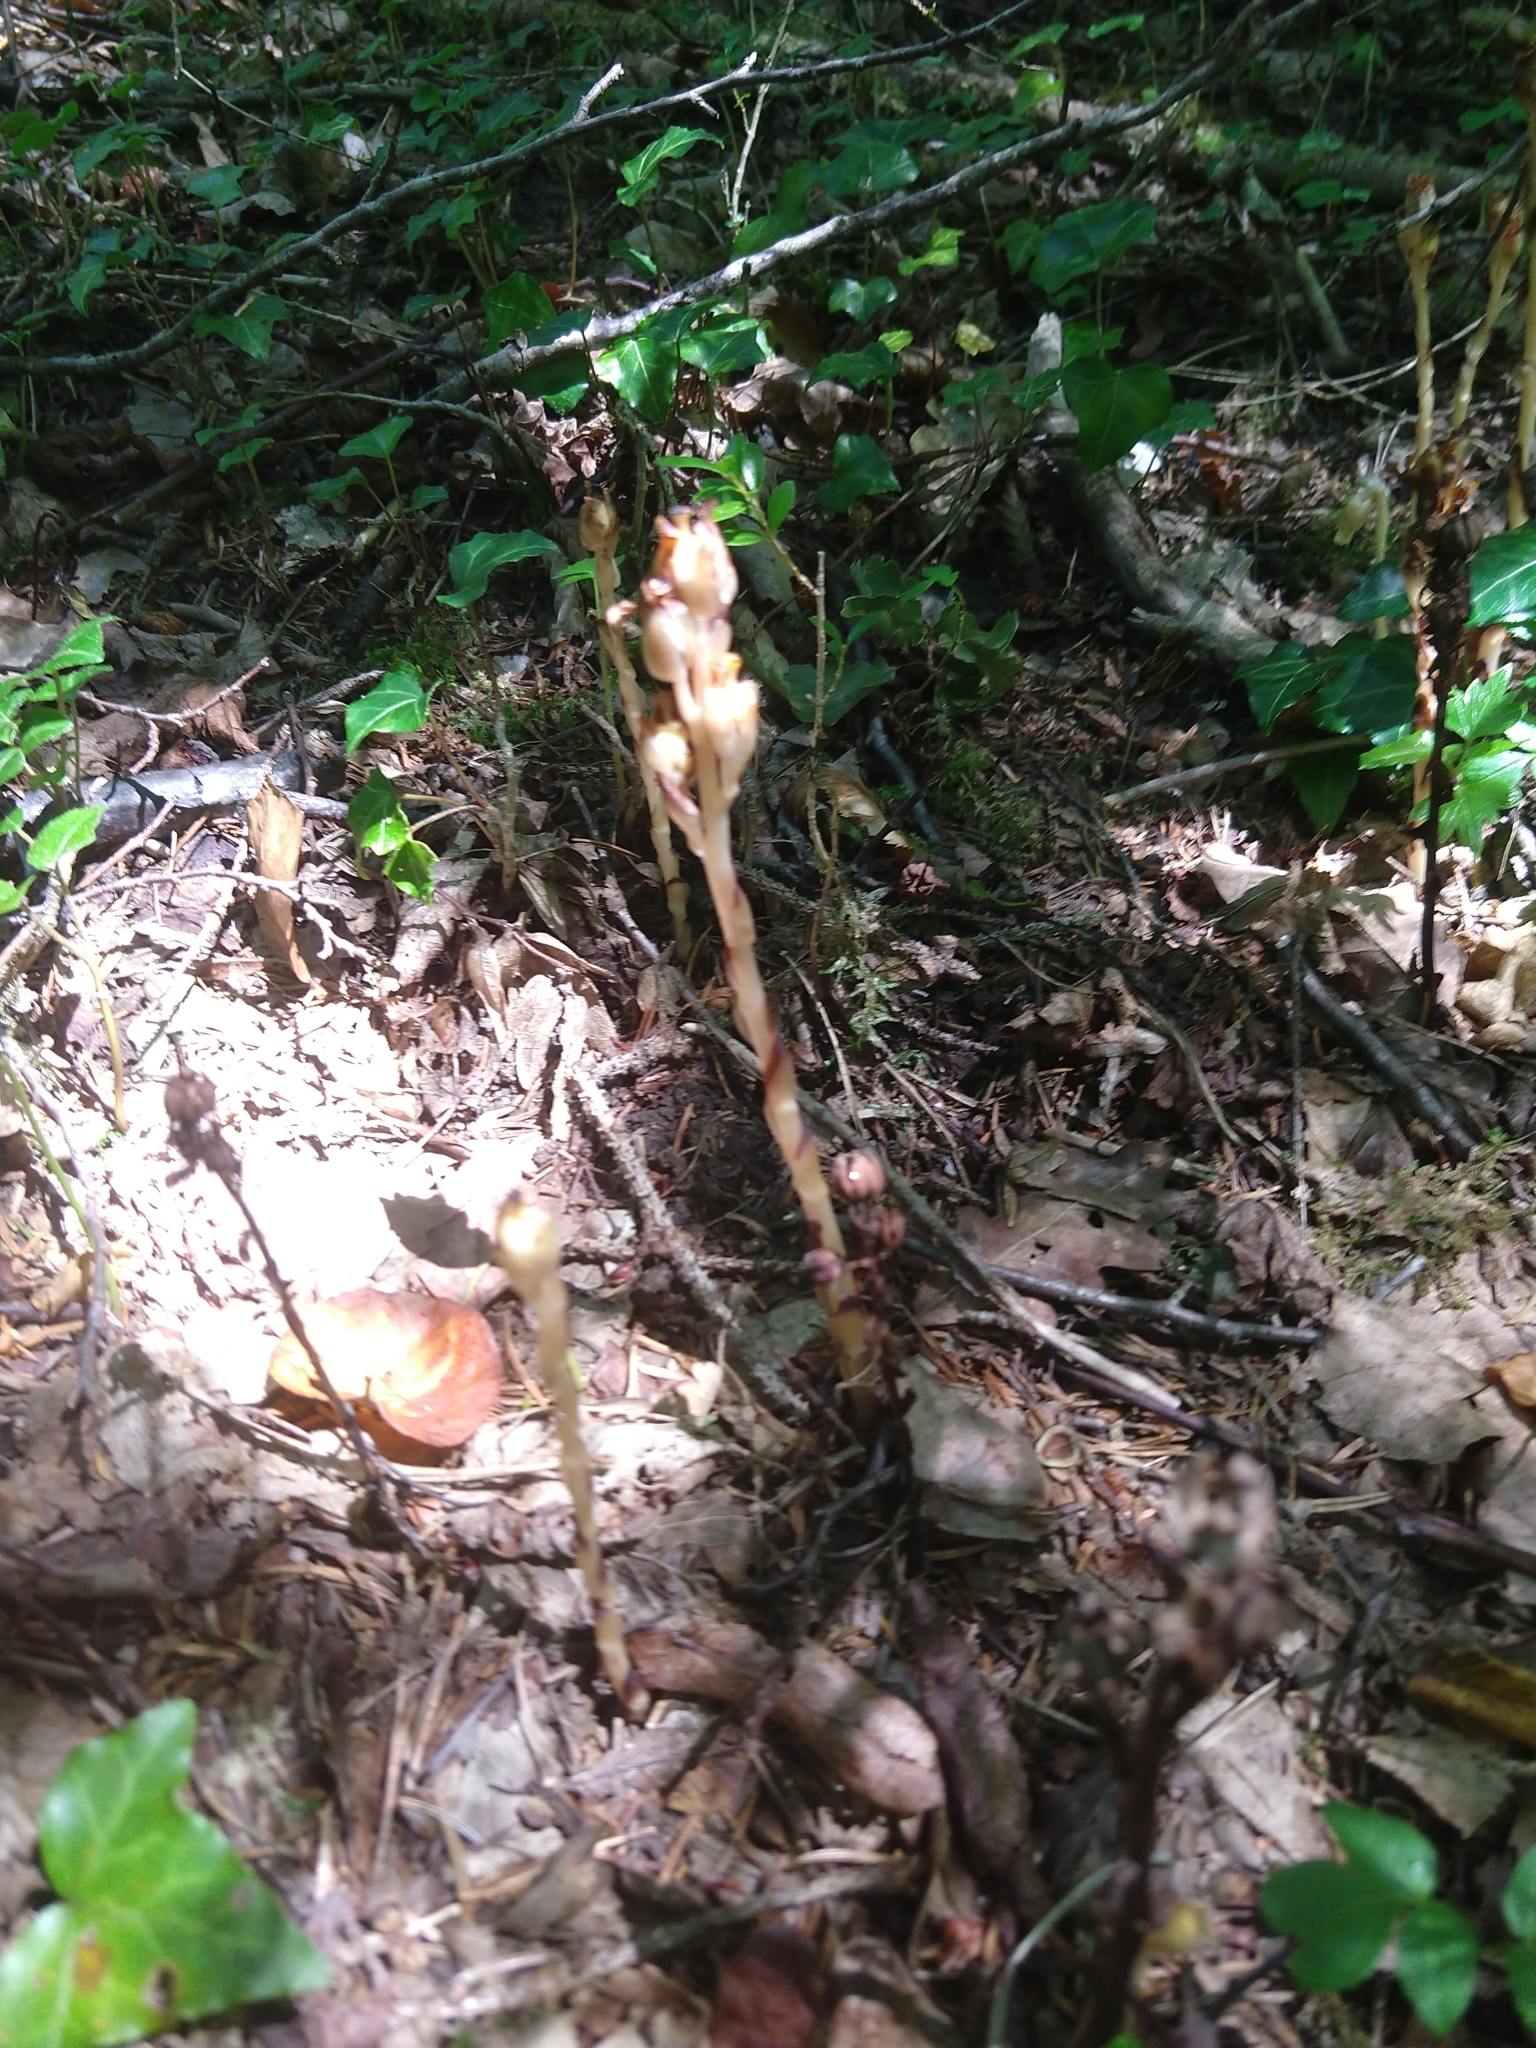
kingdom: Plantae
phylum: Tracheophyta
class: Magnoliopsida
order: Ericales
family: Ericaceae
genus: Hypopitys
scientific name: Hypopitys monotropa
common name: Yellow bird's-nest
